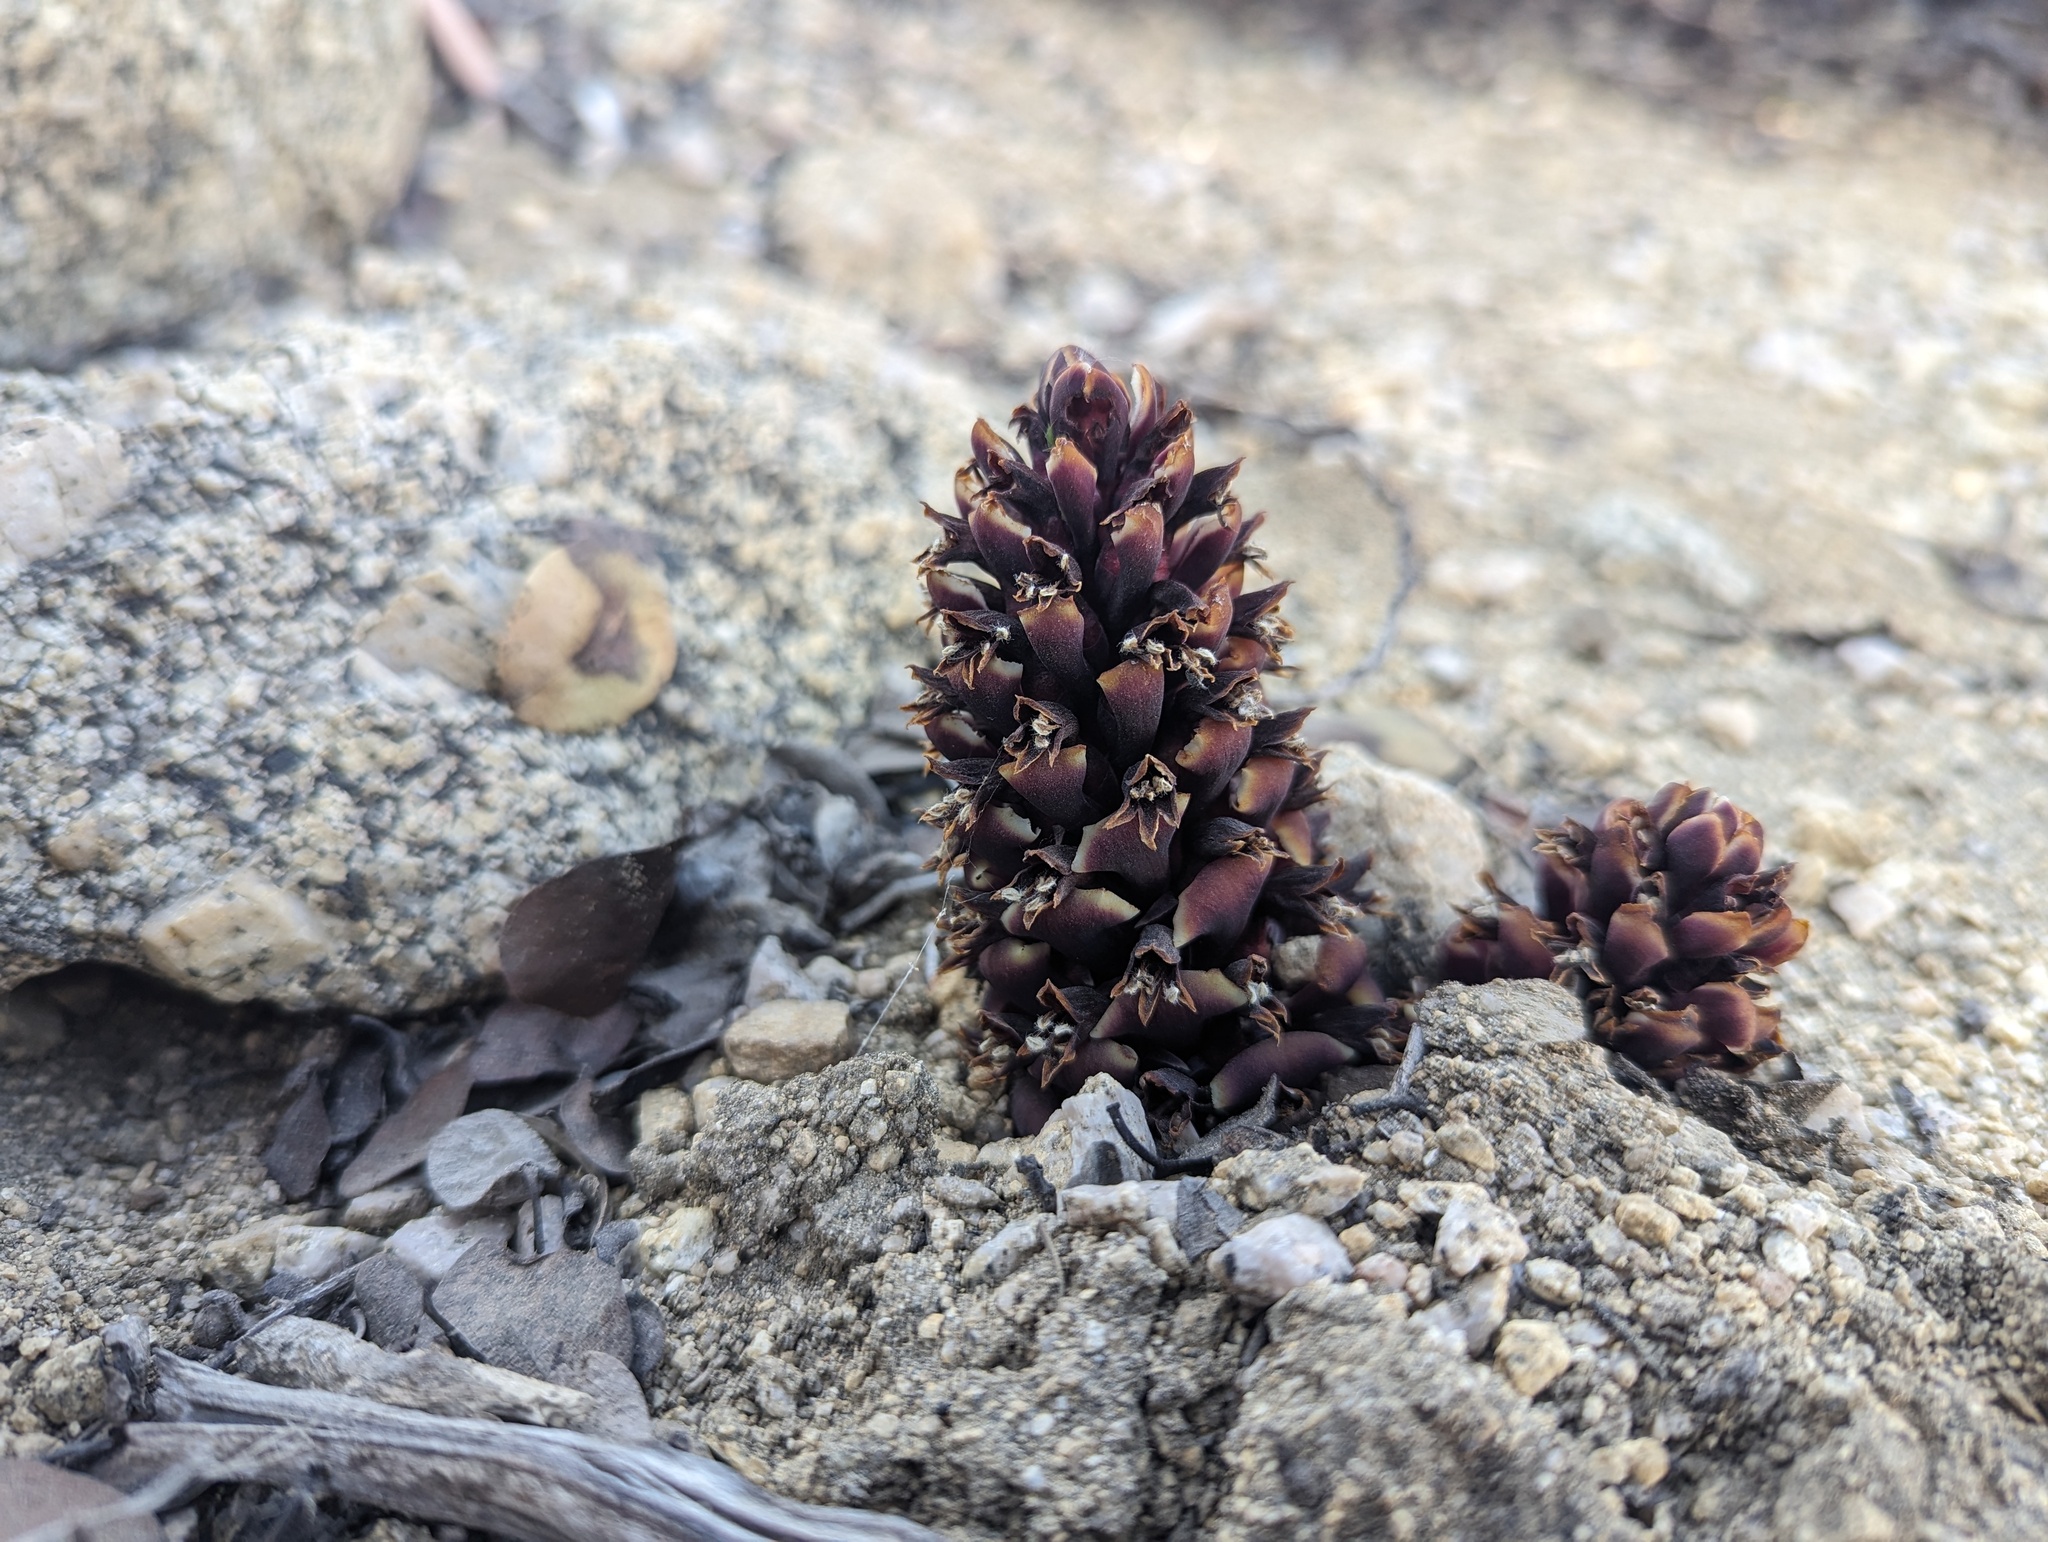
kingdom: Plantae
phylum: Tracheophyta
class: Magnoliopsida
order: Lamiales
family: Orobanchaceae
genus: Kopsiopsis
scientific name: Kopsiopsis strobilacea
